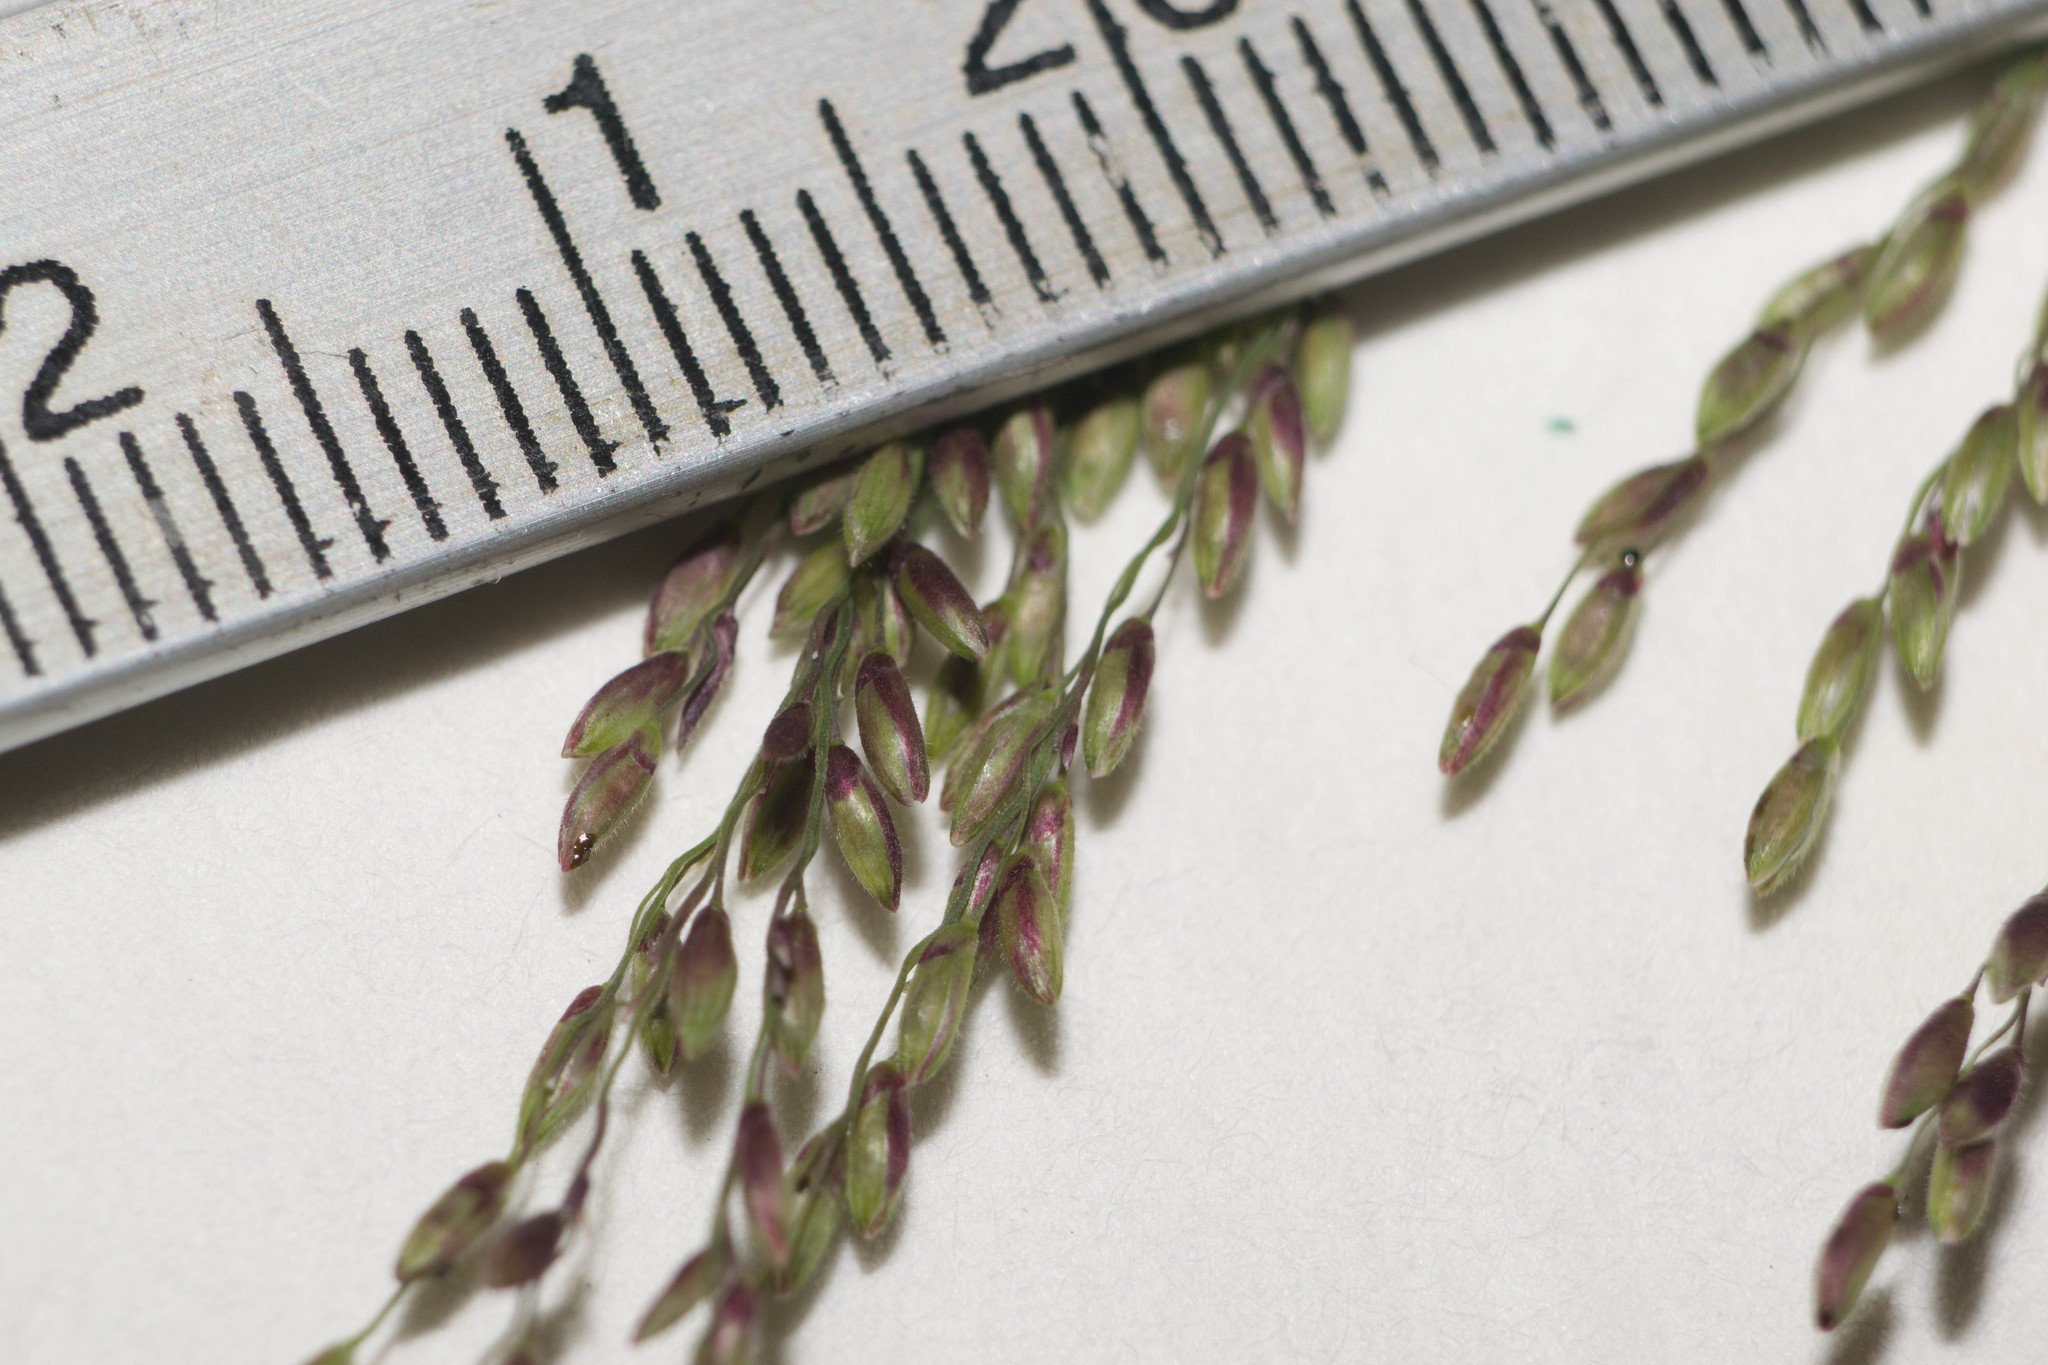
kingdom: Plantae
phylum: Tracheophyta
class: Liliopsida
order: Poales
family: Poaceae
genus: Megathyrsus
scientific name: Megathyrsus maximus
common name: Guineagrass
